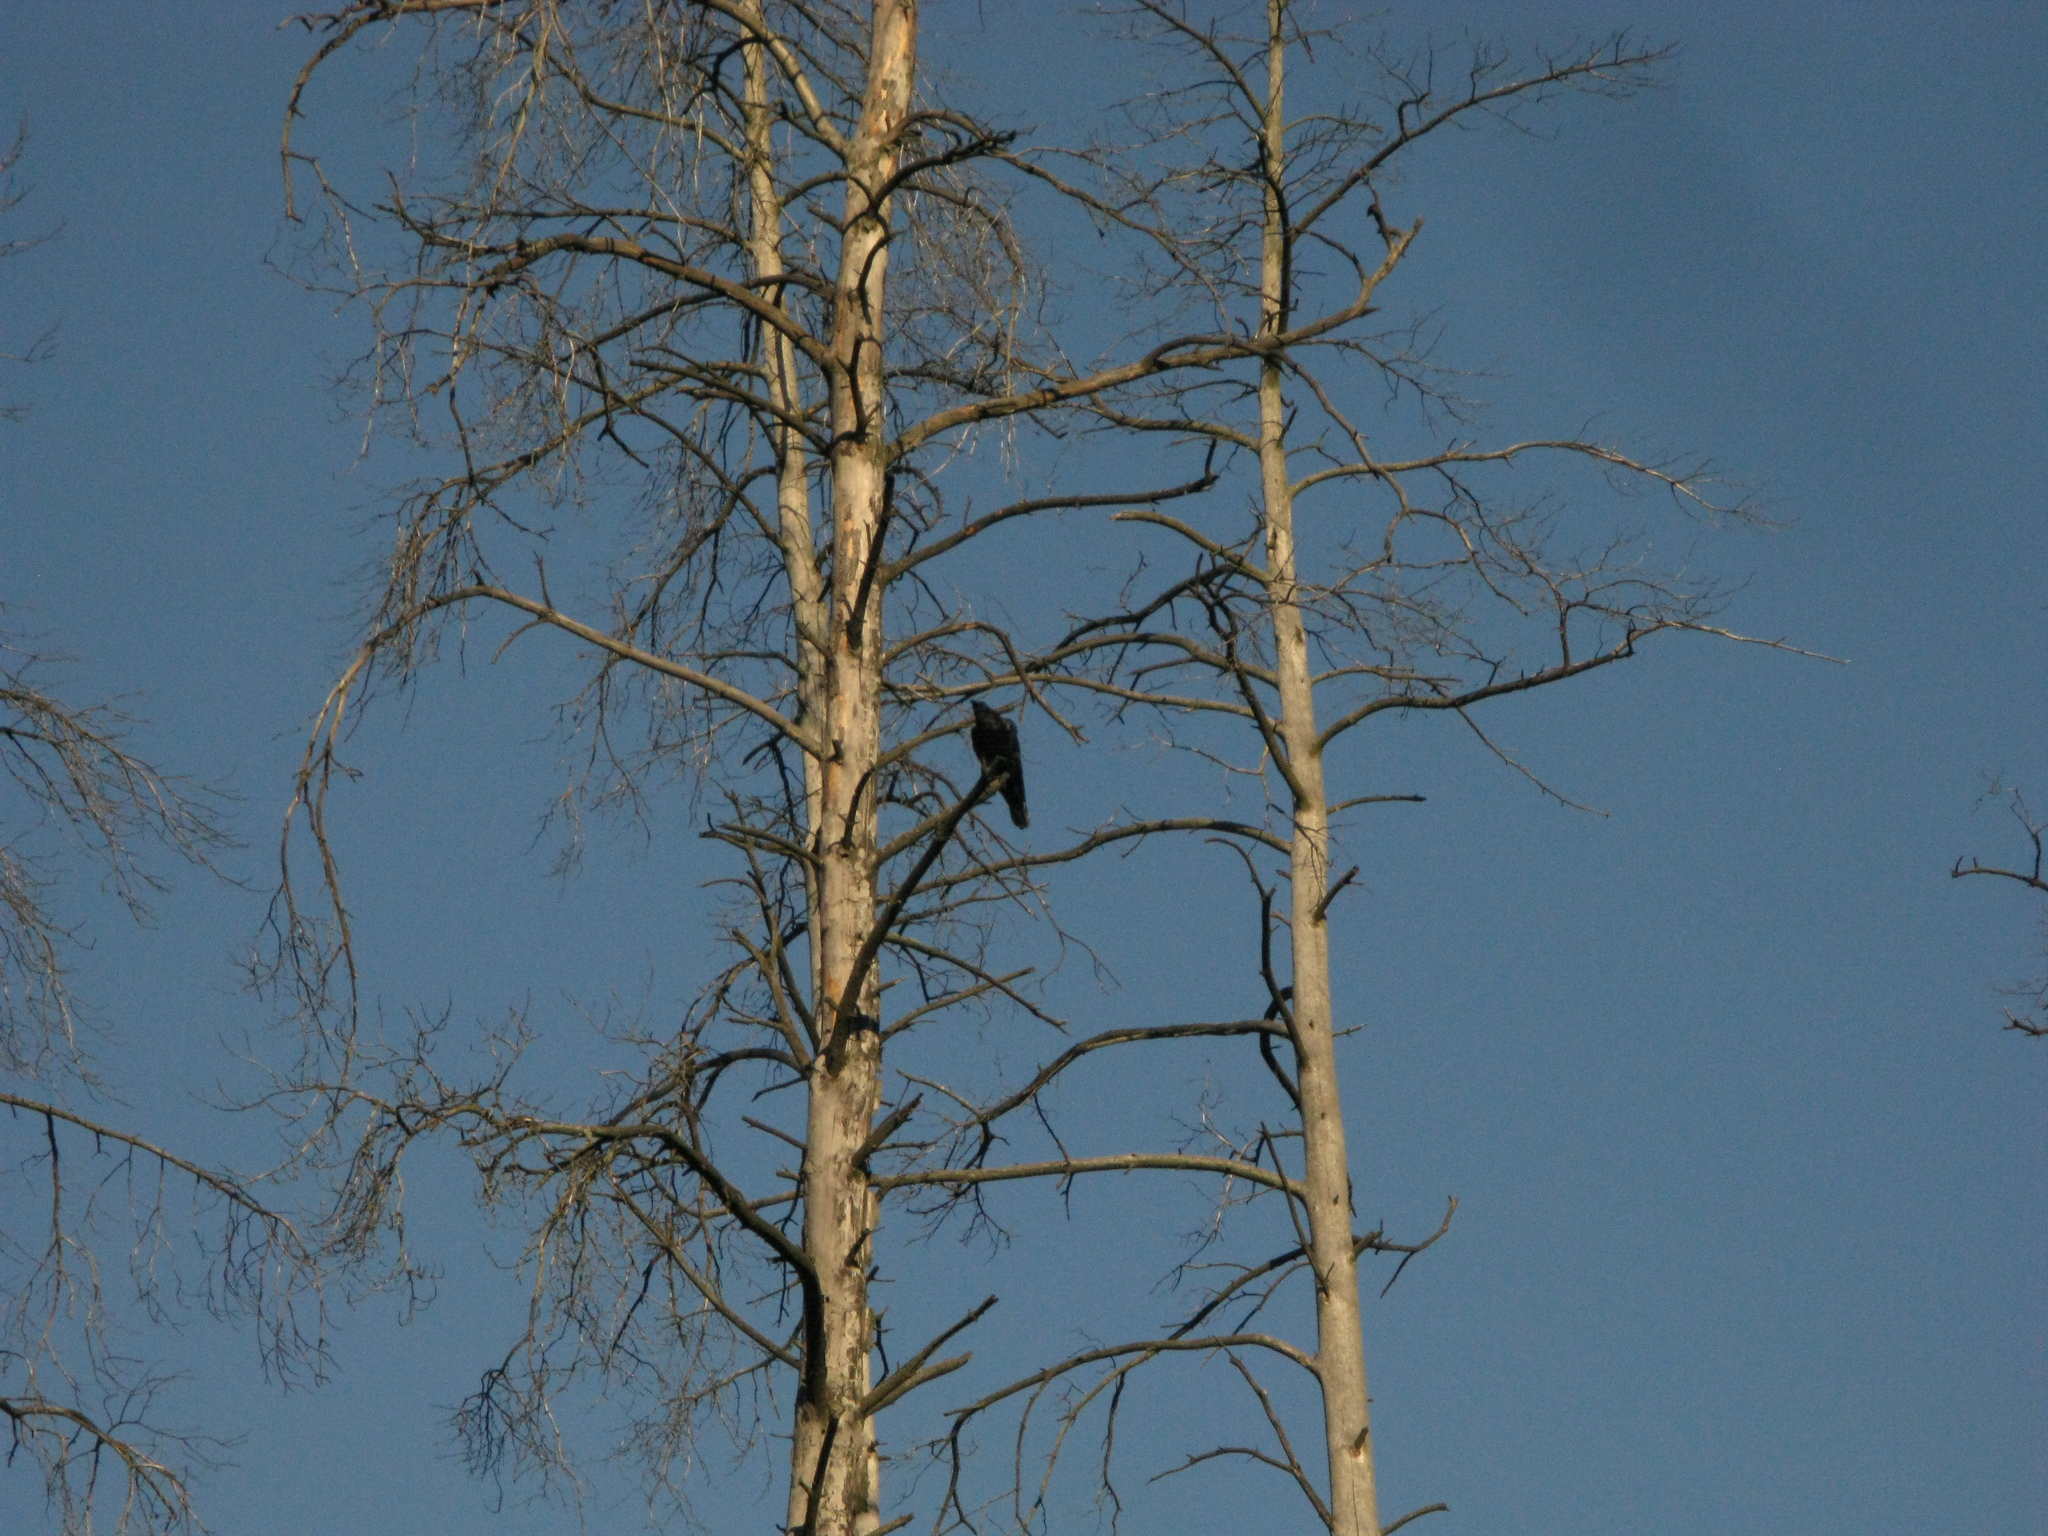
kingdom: Animalia
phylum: Chordata
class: Aves
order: Passeriformes
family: Corvidae
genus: Corvus
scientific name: Corvus corax
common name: Common raven
